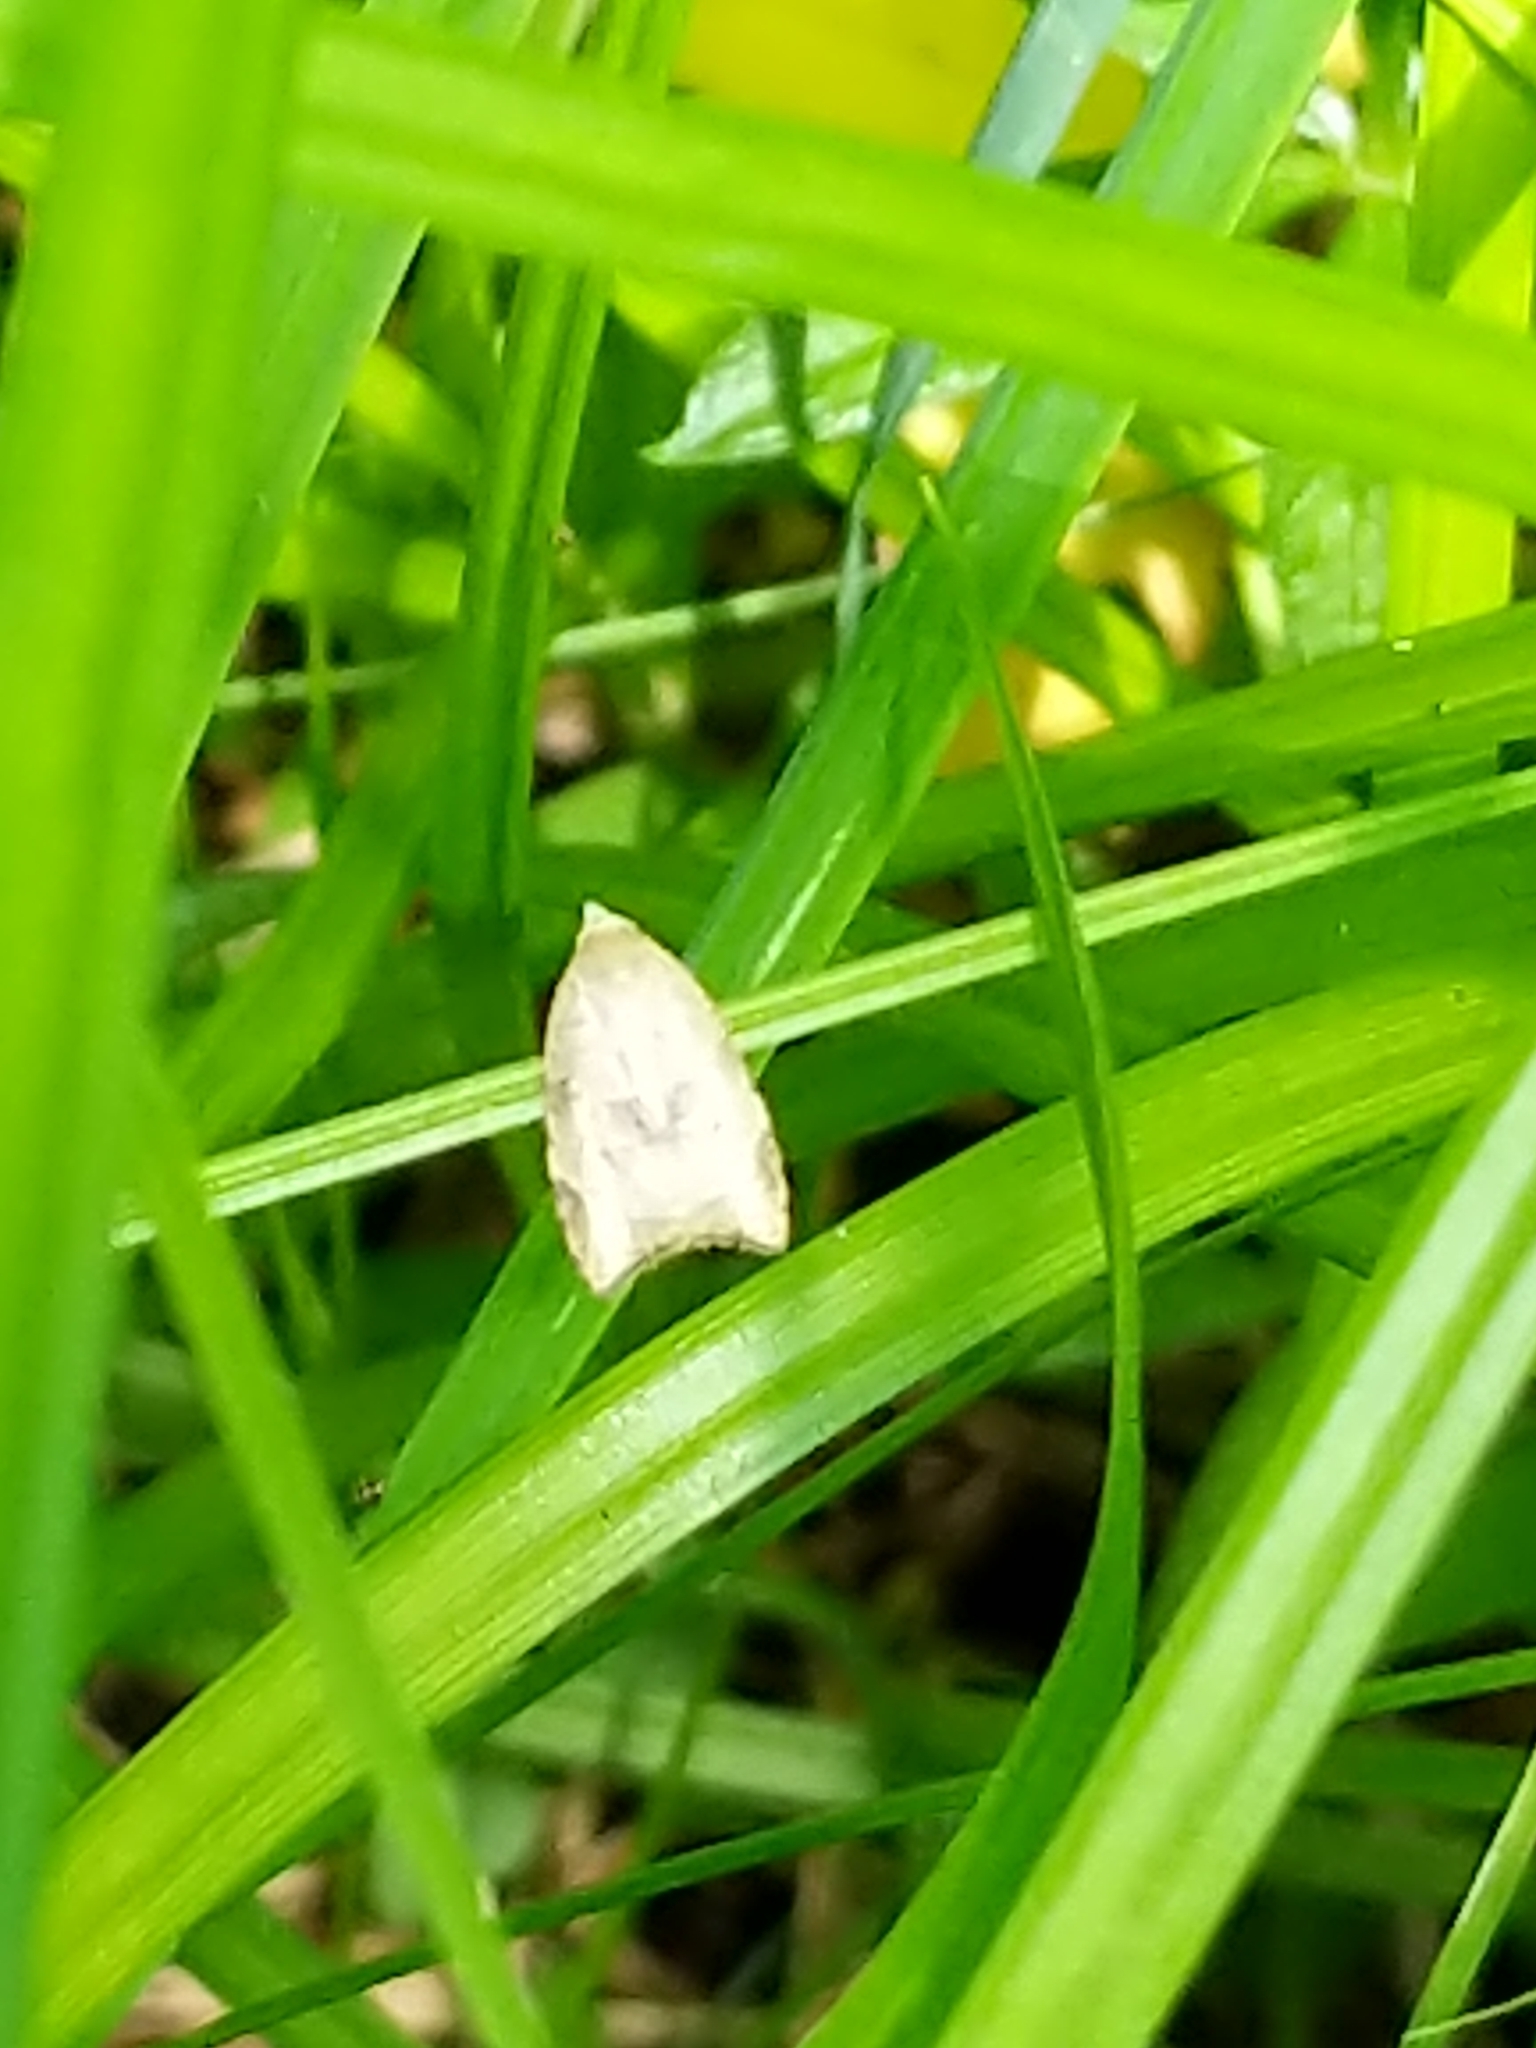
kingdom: Animalia
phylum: Arthropoda
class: Insecta
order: Lepidoptera
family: Tortricidae
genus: Coelostathma
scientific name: Coelostathma discopunctana
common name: Batman moth
